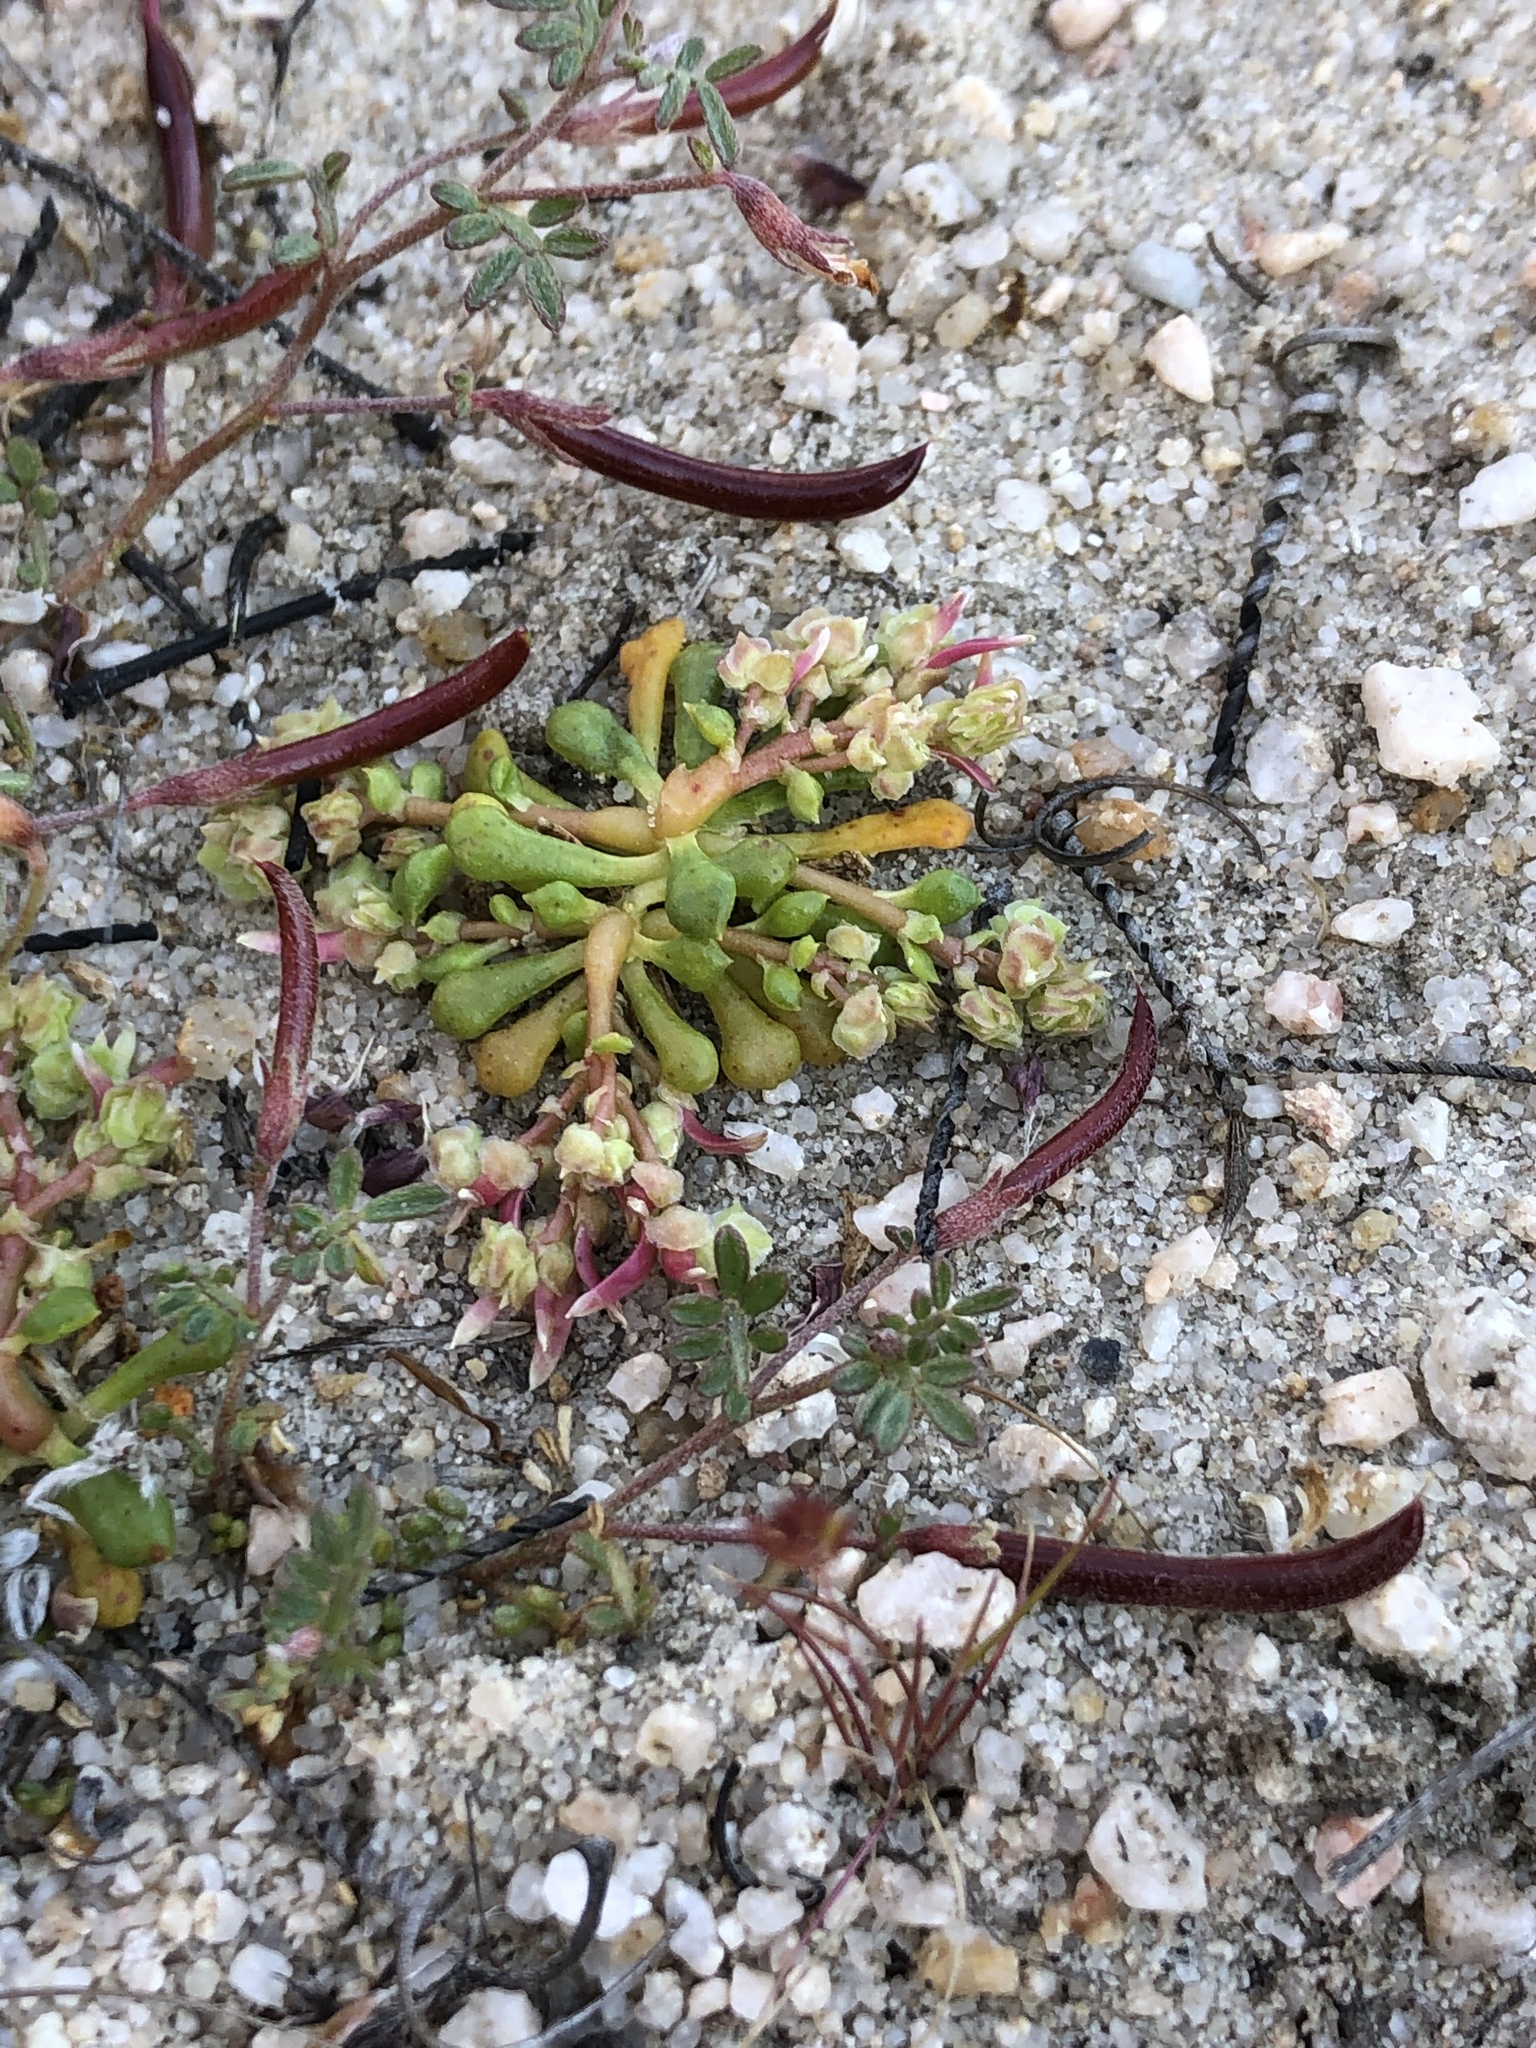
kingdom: Plantae
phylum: Tracheophyta
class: Magnoliopsida
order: Caryophyllales
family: Montiaceae
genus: Calyptridium
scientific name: Calyptridium monandrum
